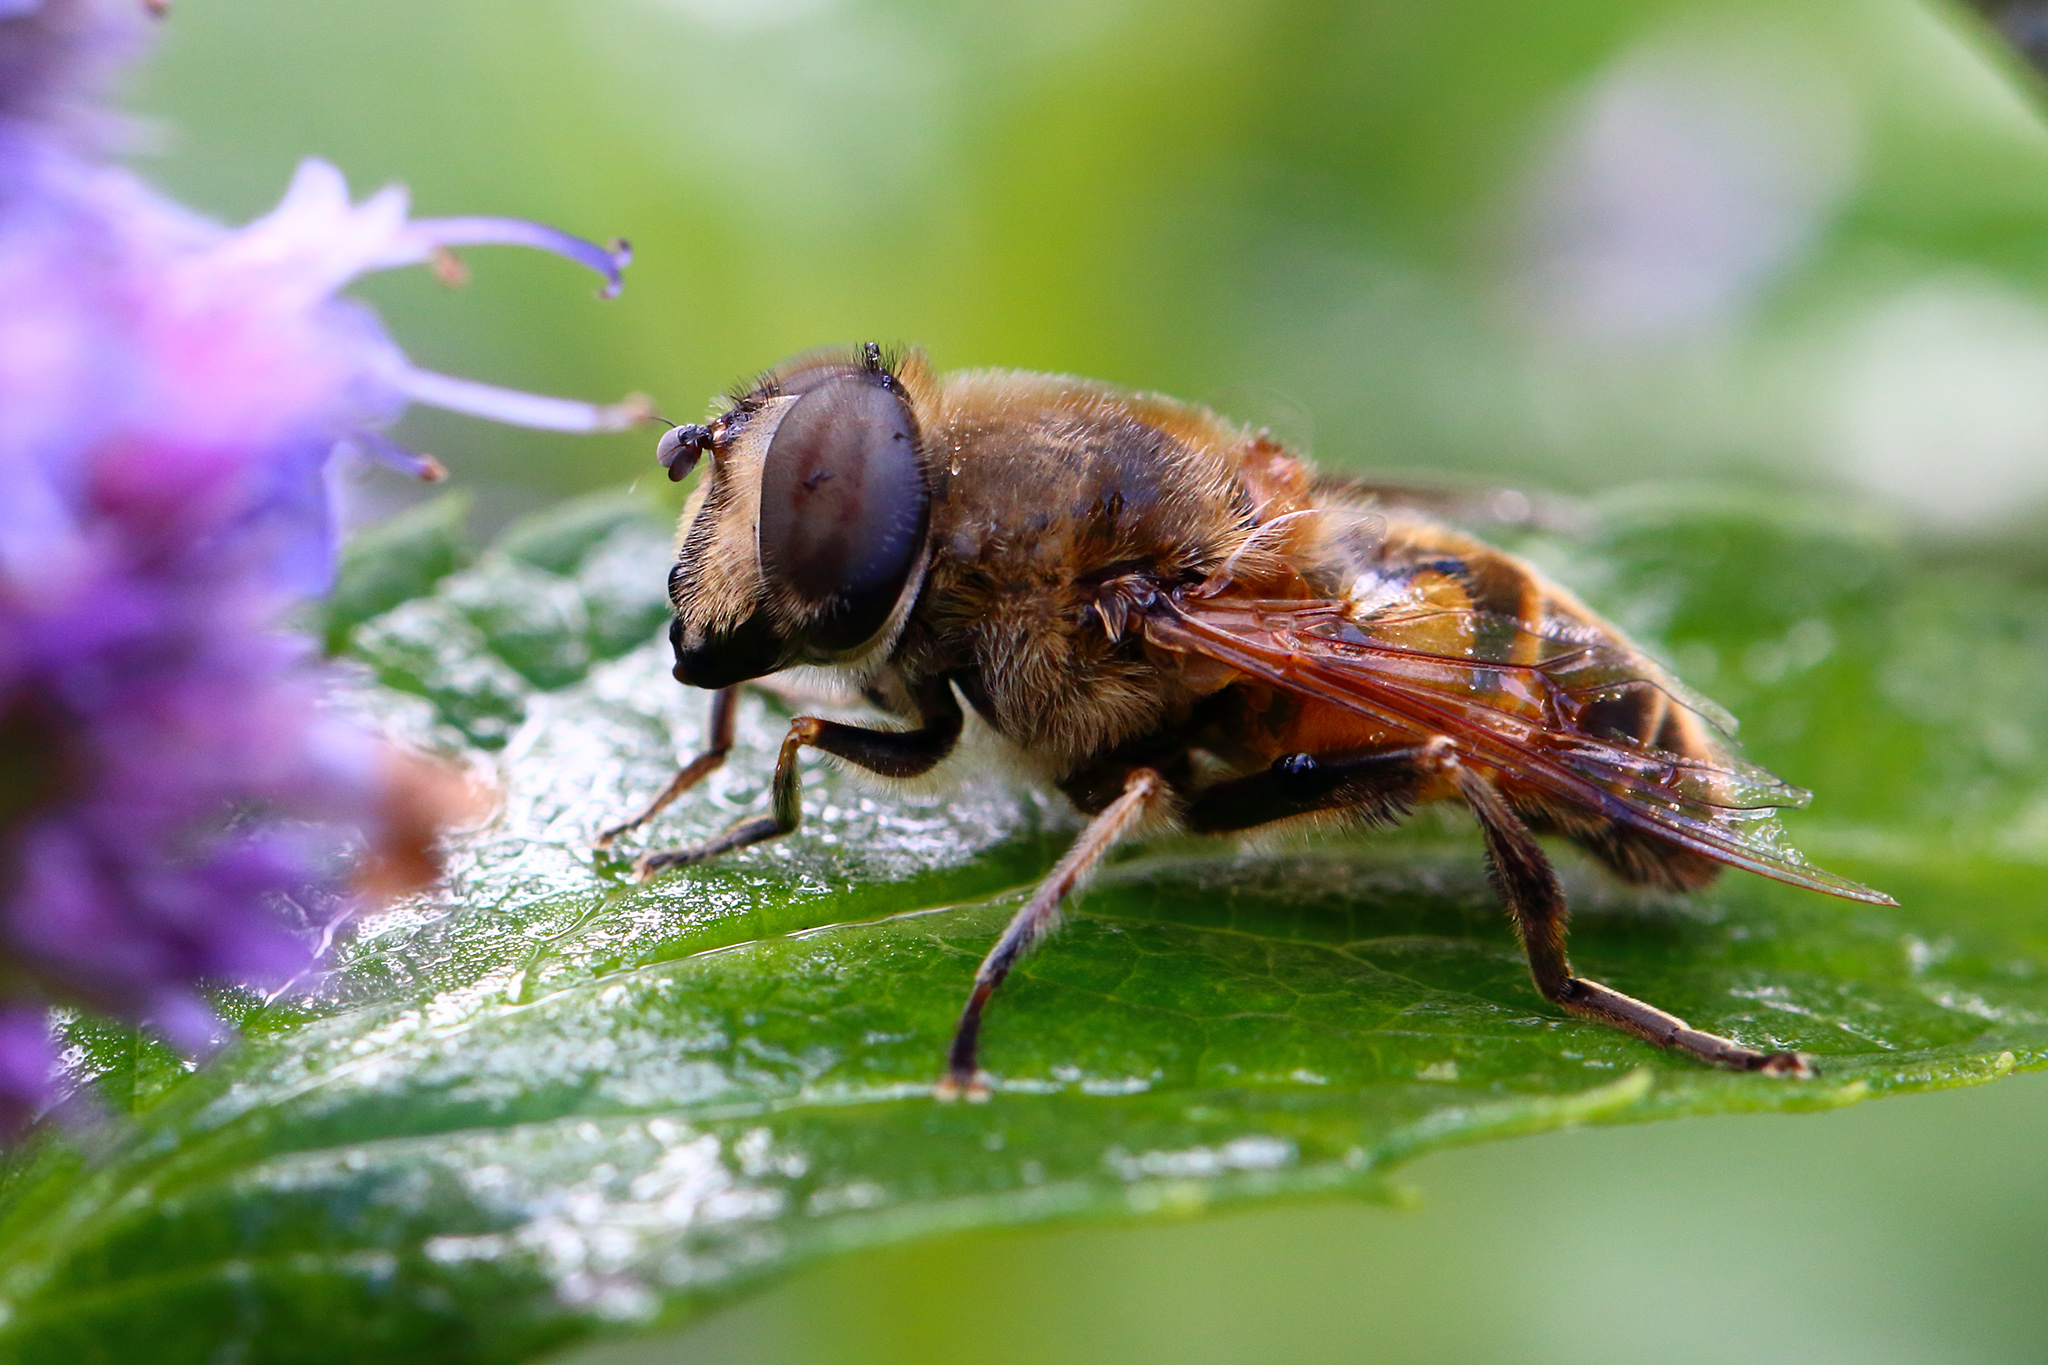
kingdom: Animalia
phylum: Arthropoda
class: Insecta
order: Diptera
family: Syrphidae
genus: Eristalis
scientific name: Eristalis tenax
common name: Drone fly
